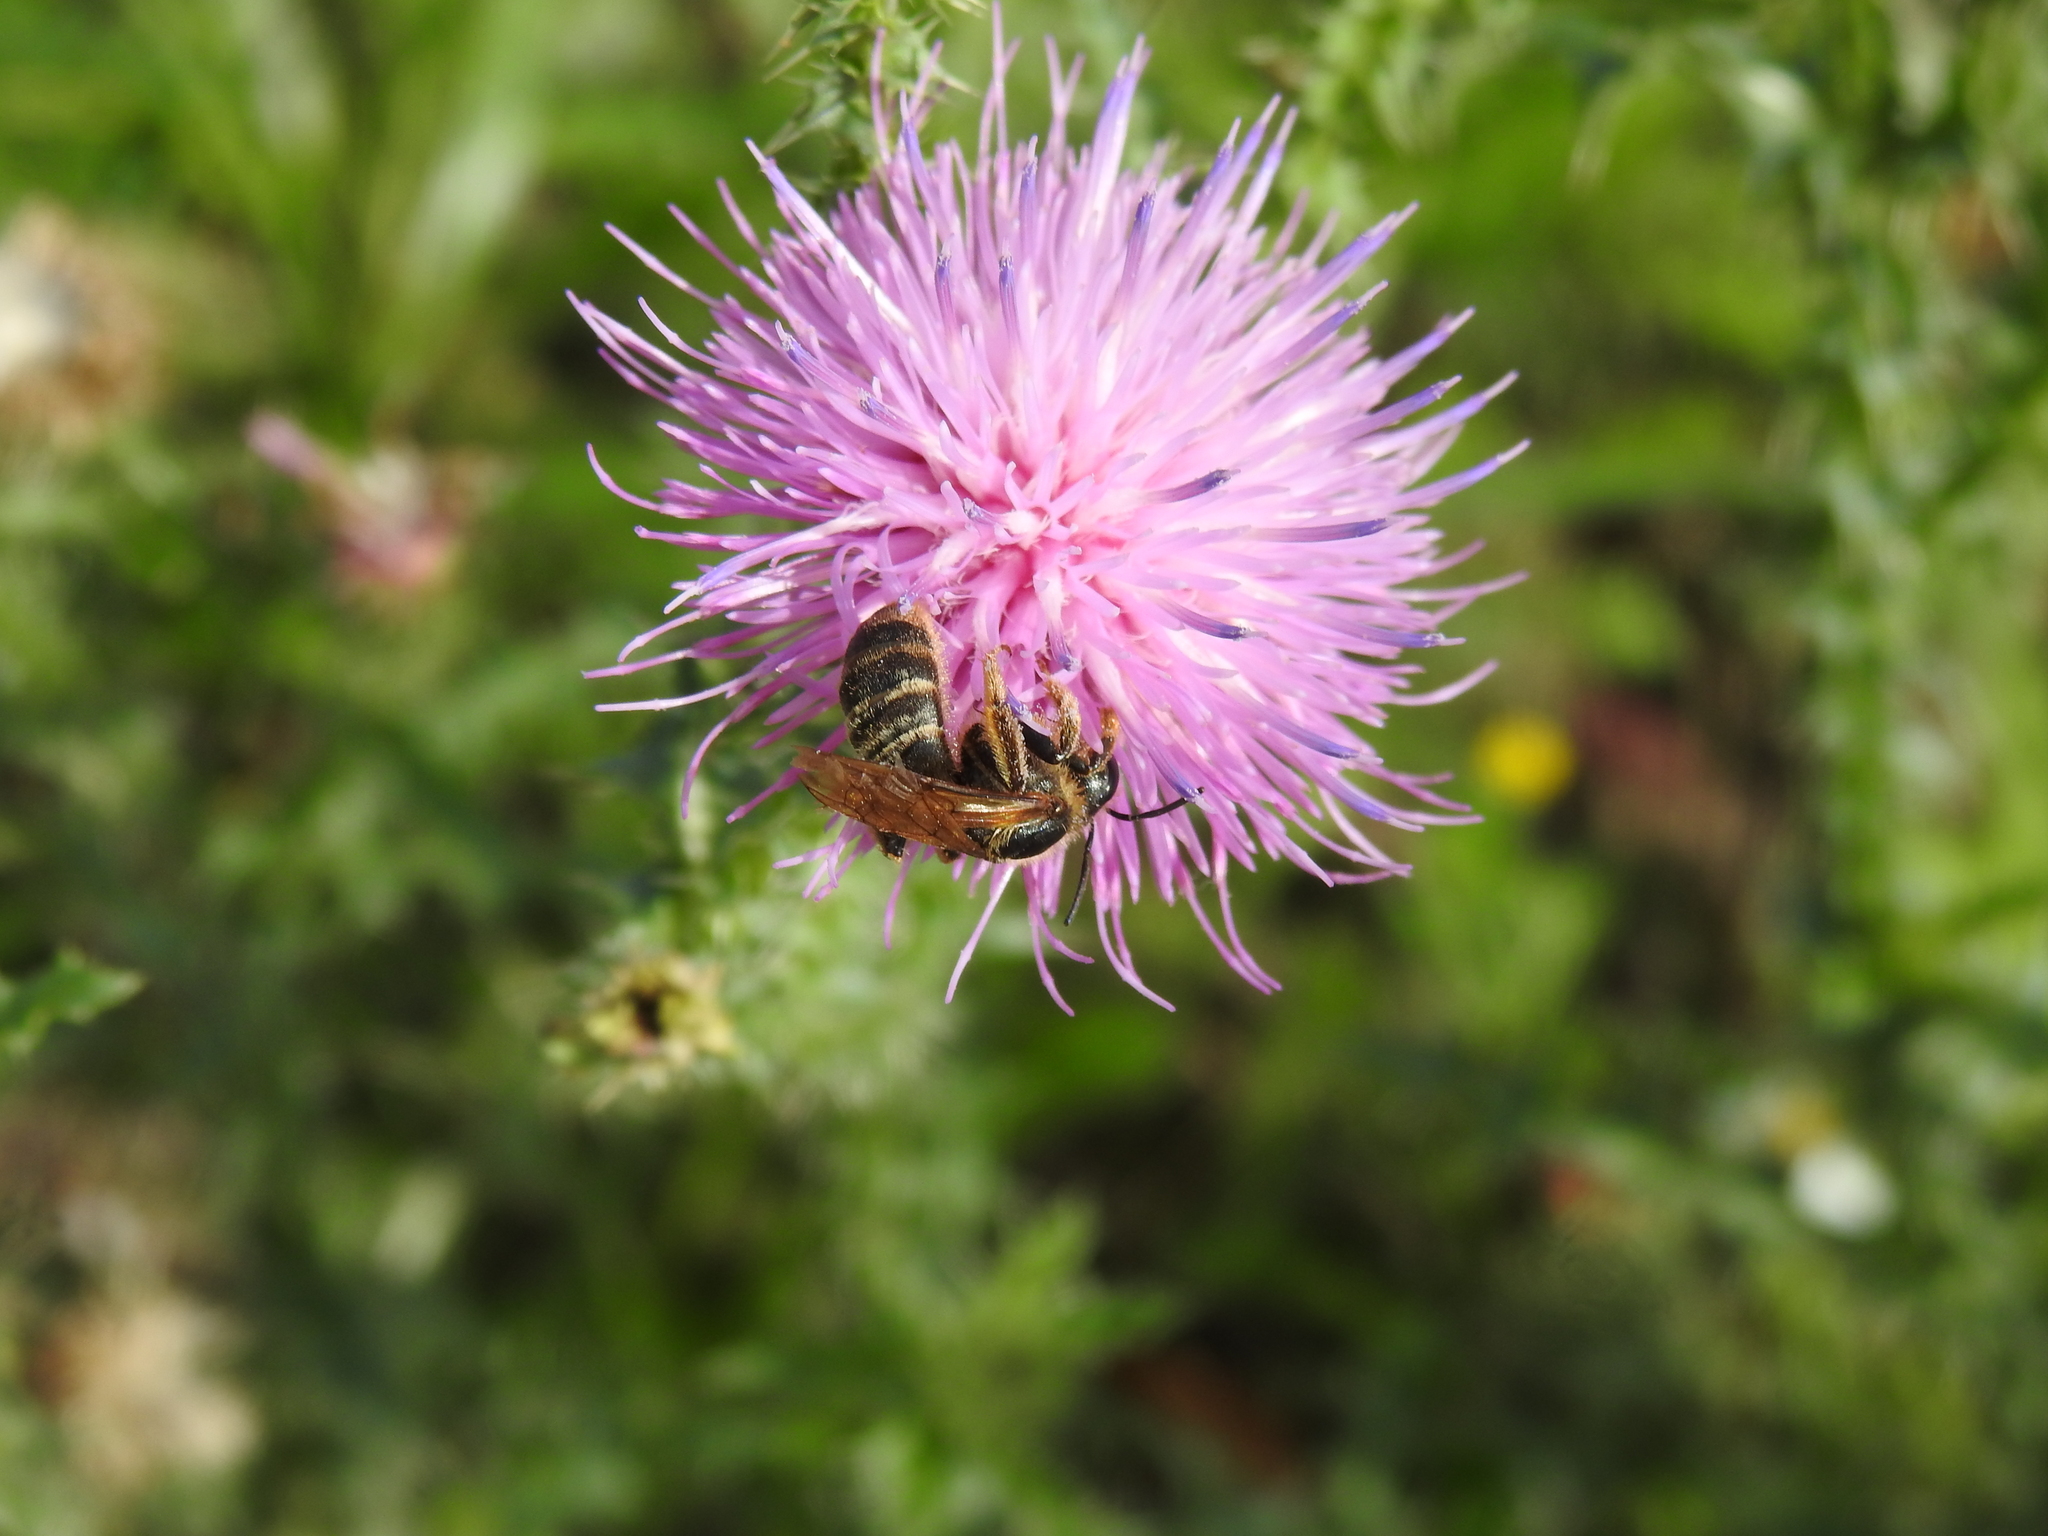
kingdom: Animalia
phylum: Arthropoda
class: Insecta
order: Hymenoptera
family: Halictidae
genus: Halictus
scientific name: Halictus scabiosae
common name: Great banded furrow bee
